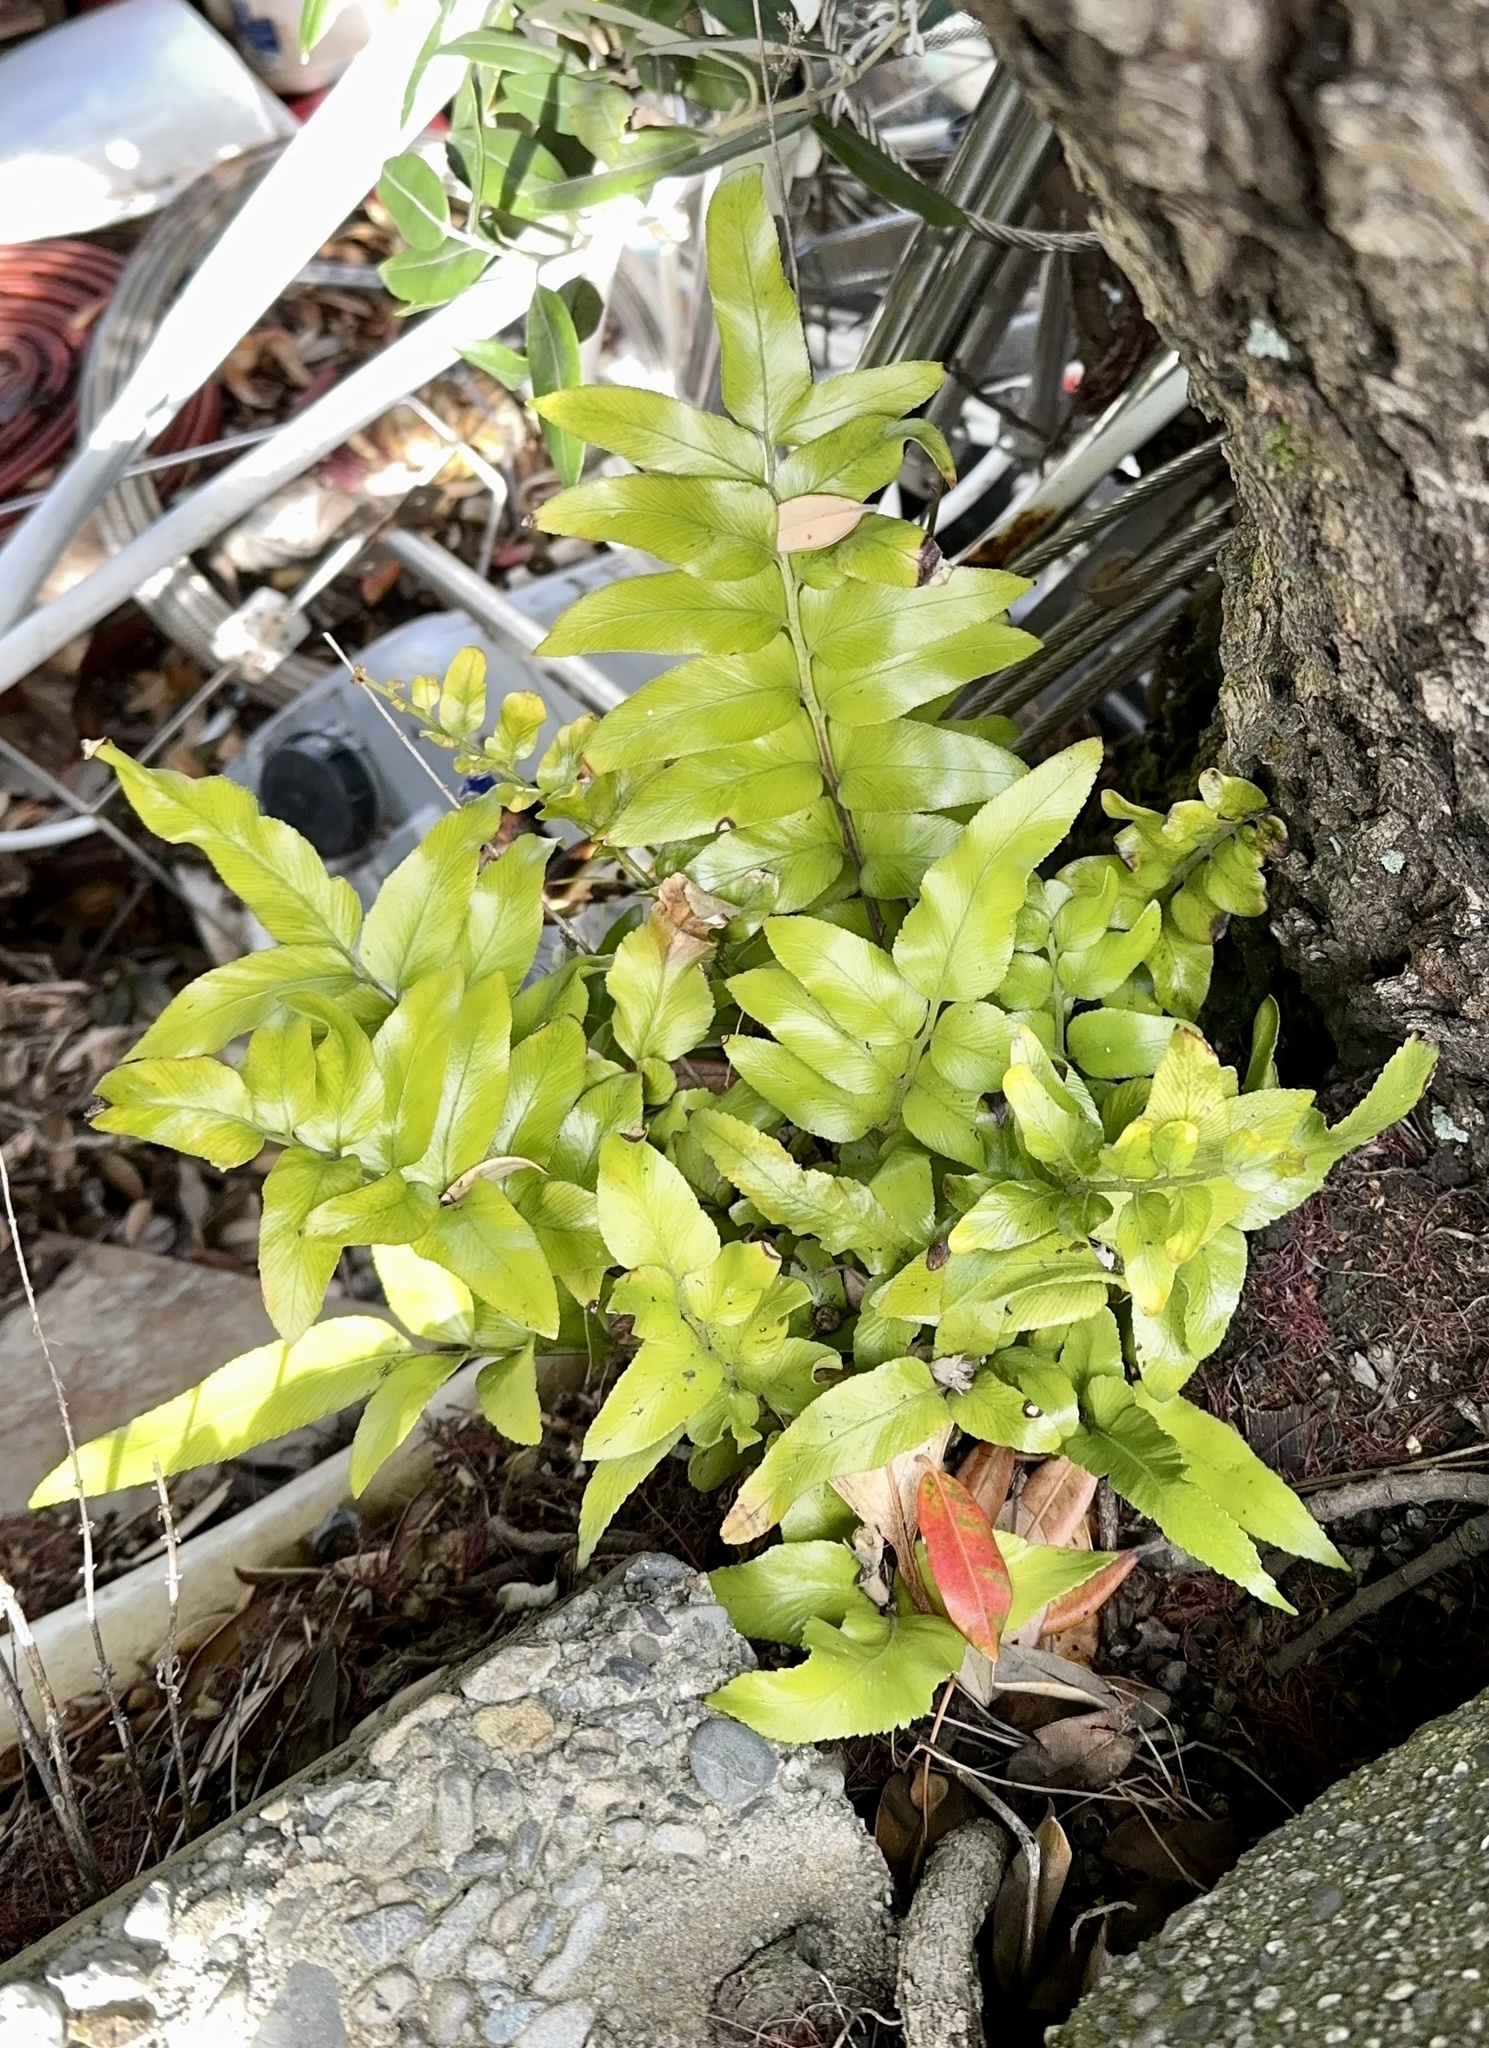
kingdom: Plantae
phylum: Tracheophyta
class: Polypodiopsida
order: Polypodiales
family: Aspleniaceae
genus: Asplenium
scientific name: Asplenium oblongifolium
